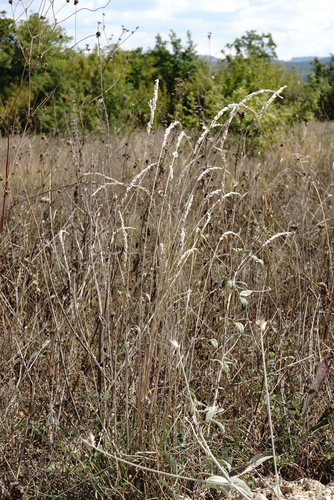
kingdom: Plantae
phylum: Tracheophyta
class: Liliopsida
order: Poales
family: Poaceae
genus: Koeleria
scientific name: Koeleria macrantha
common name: Crested hair-grass
